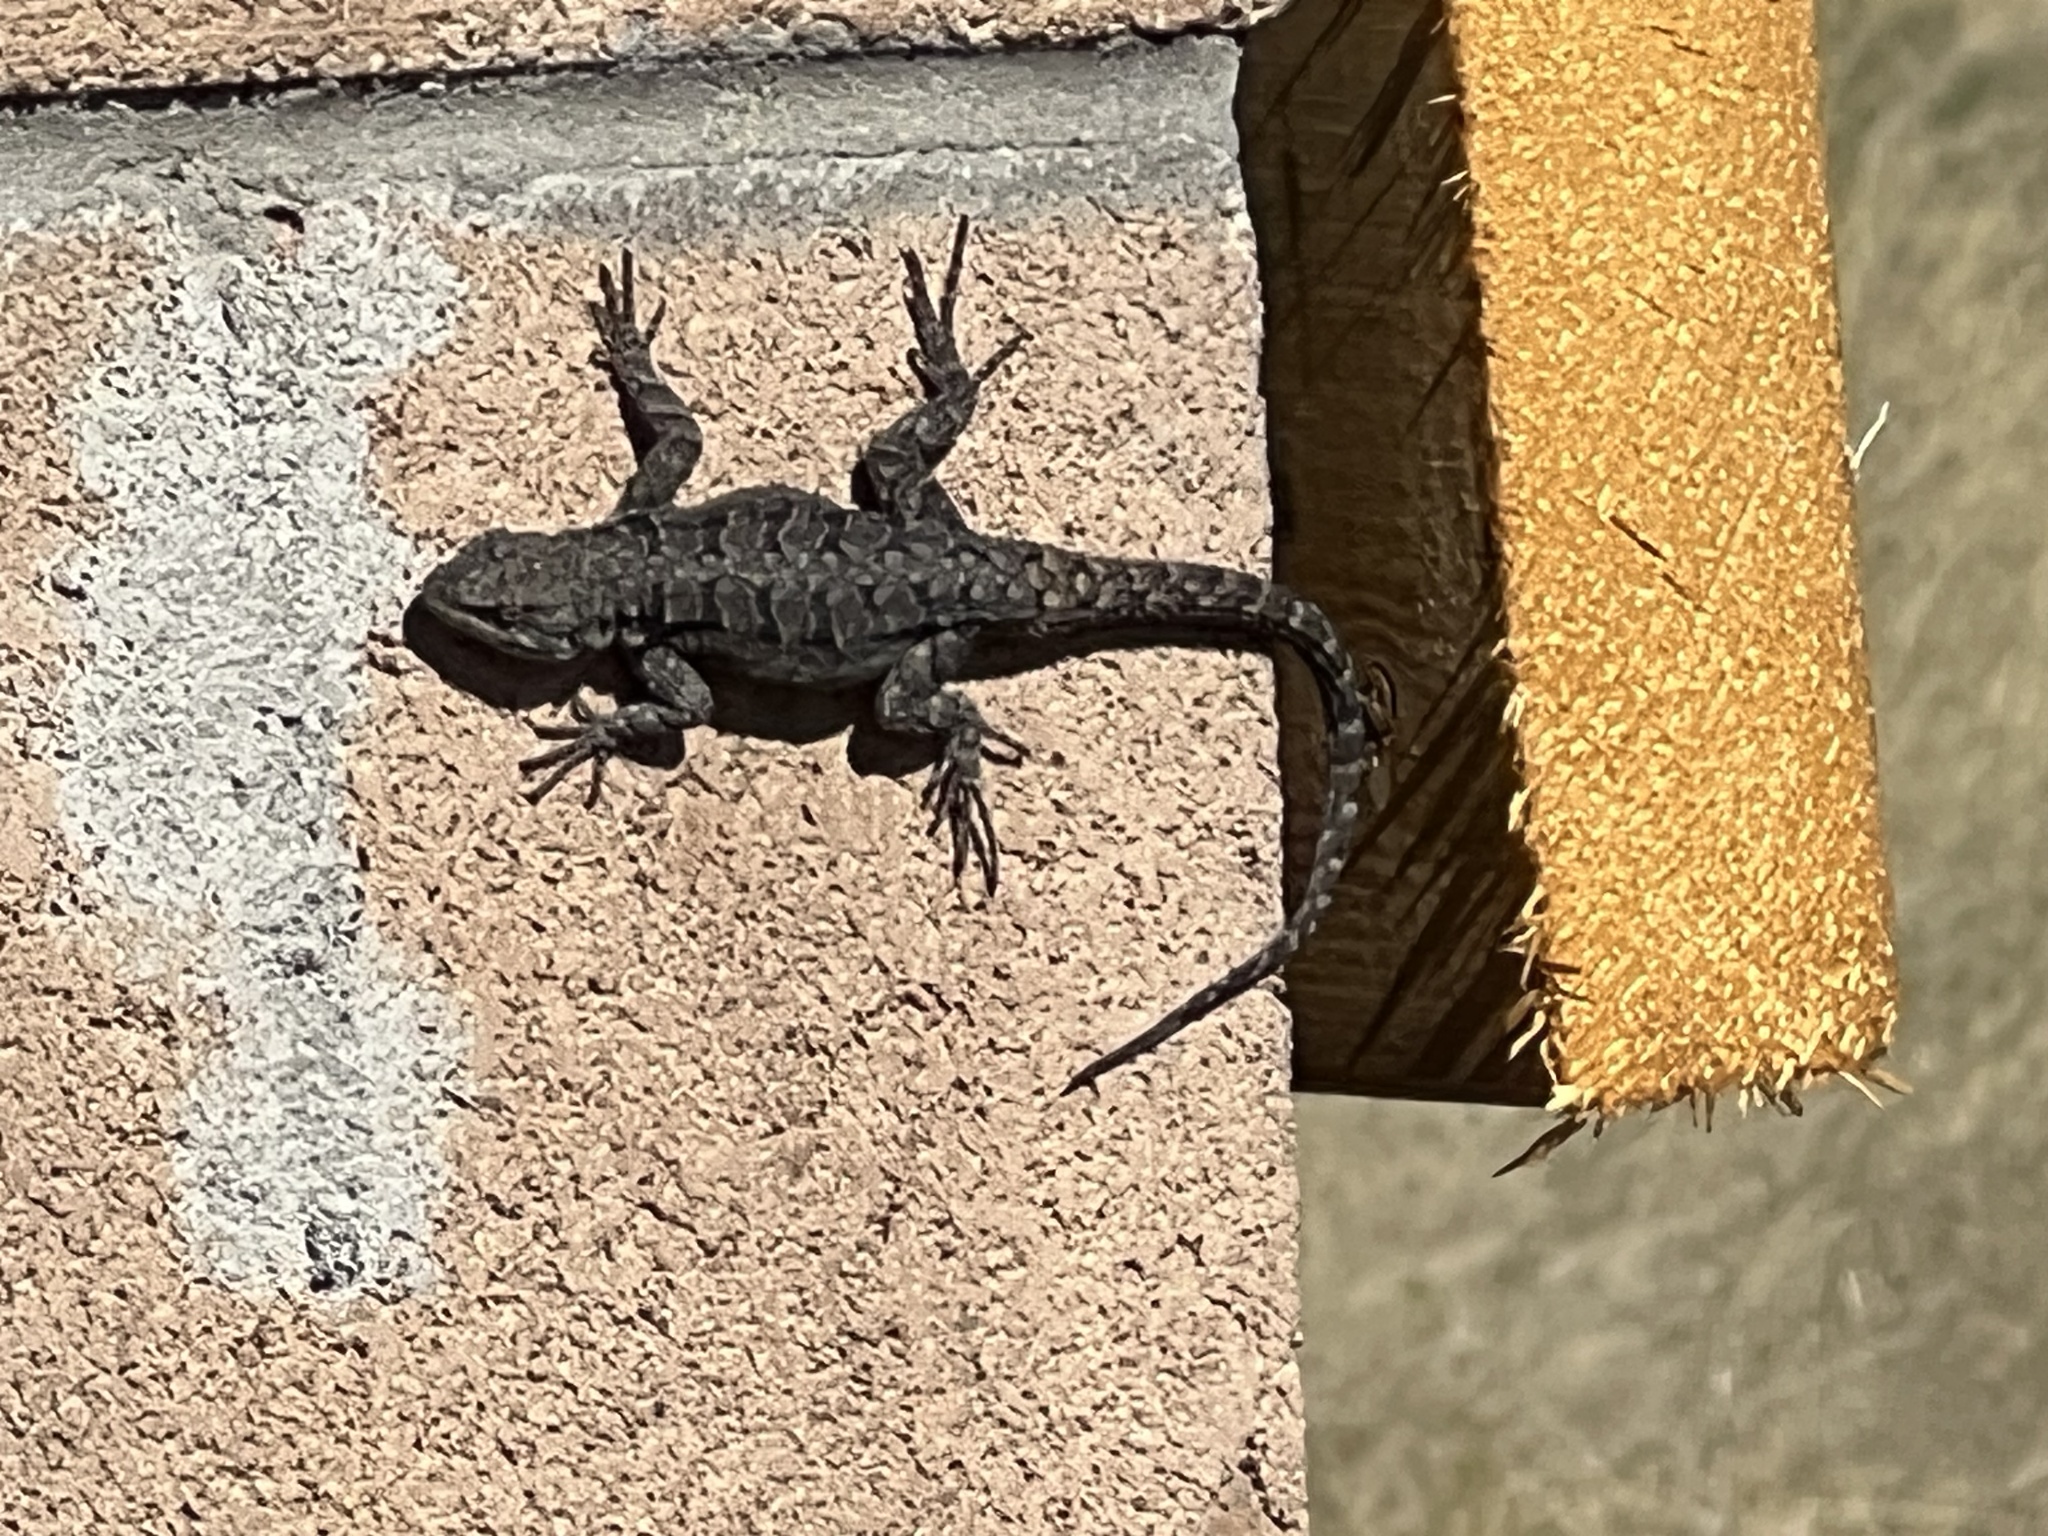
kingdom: Animalia
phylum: Chordata
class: Squamata
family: Phrynosomatidae
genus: Urosaurus
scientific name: Urosaurus ornatus
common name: Ornate tree lizard
